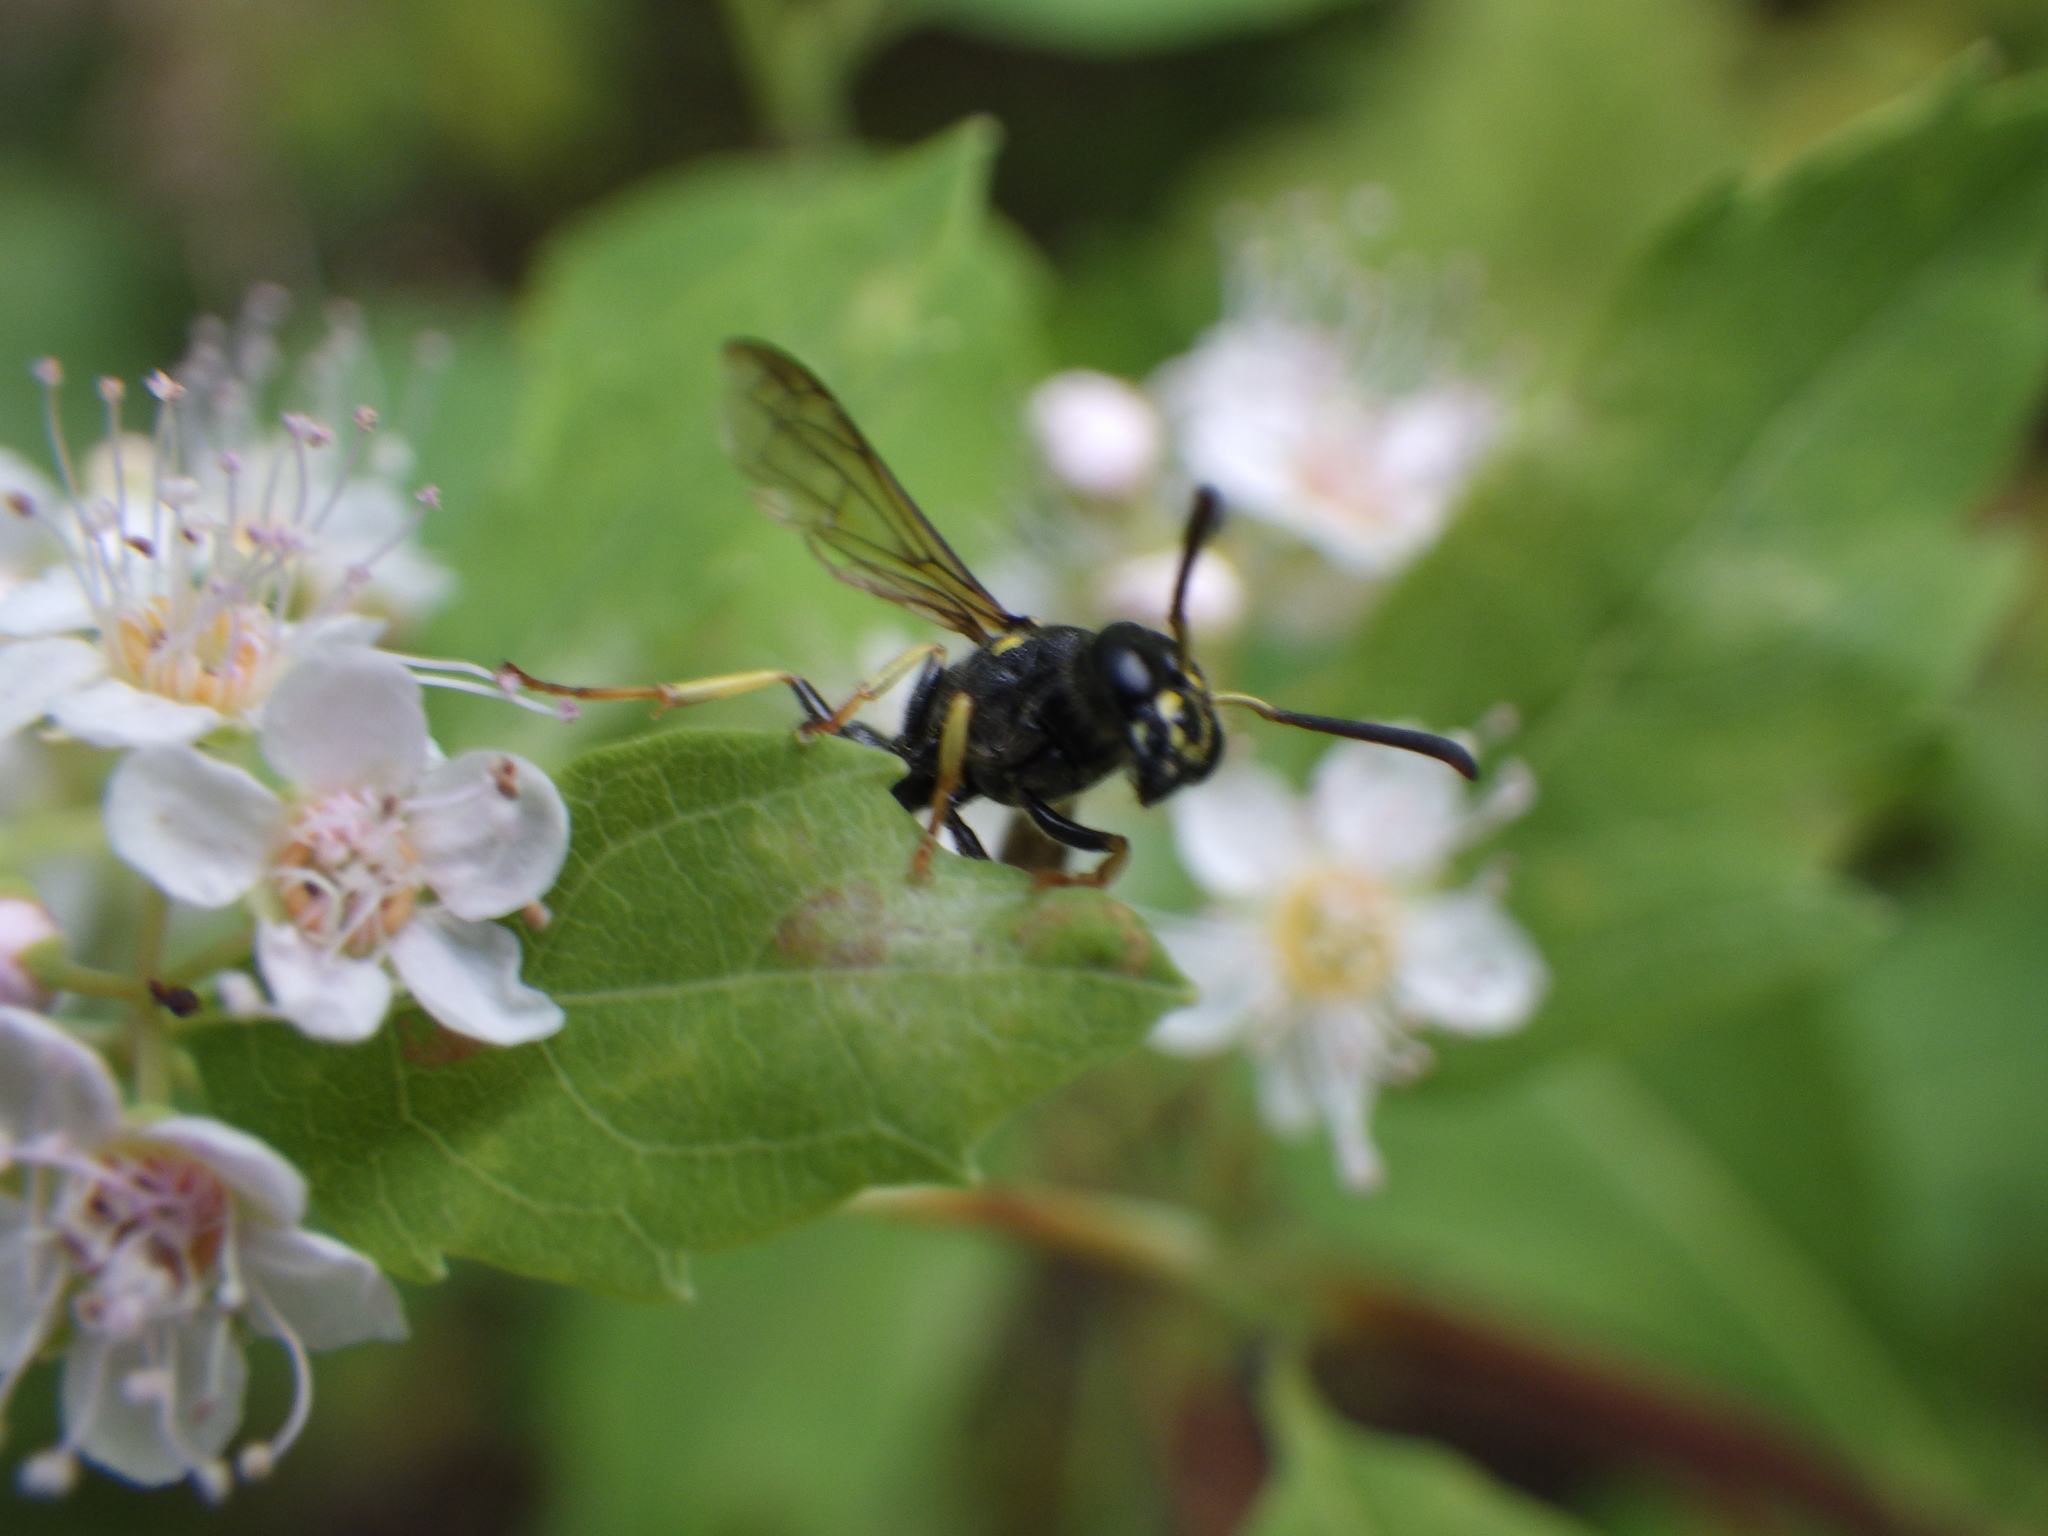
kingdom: Animalia
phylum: Arthropoda
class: Insecta
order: Hymenoptera
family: Vespidae
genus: Ancistrocerus
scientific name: Ancistrocerus adiabatus
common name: Bramble mason wasp
